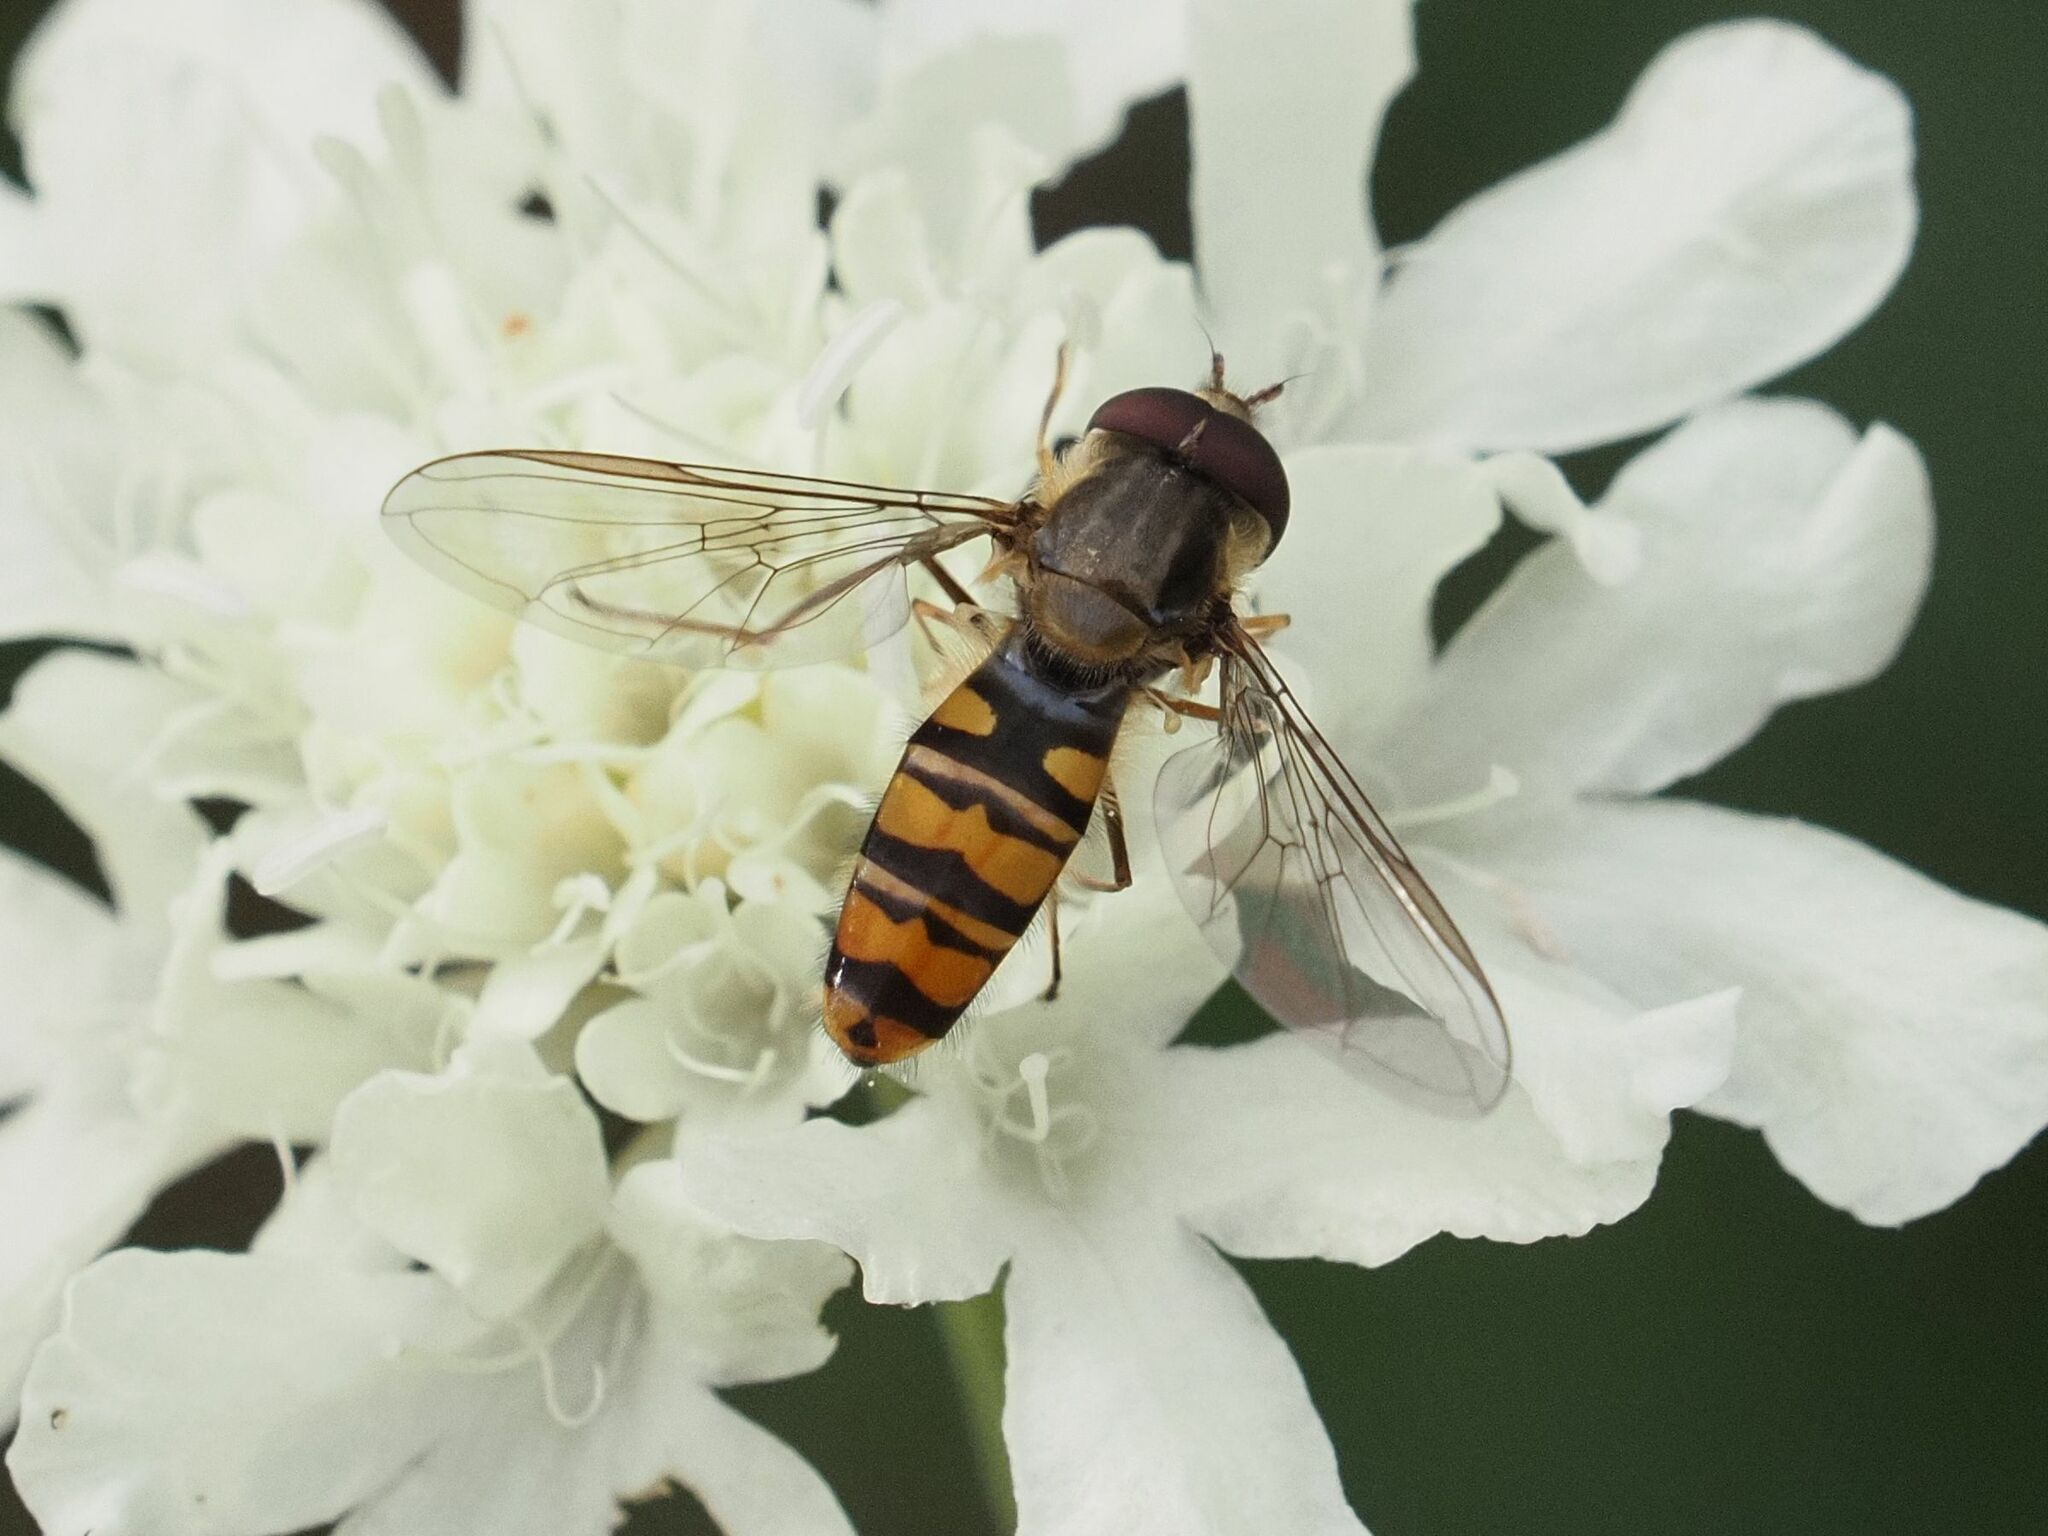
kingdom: Animalia
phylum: Arthropoda
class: Insecta
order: Diptera
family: Syrphidae
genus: Episyrphus
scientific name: Episyrphus balteatus
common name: Marmalade hoverfly
